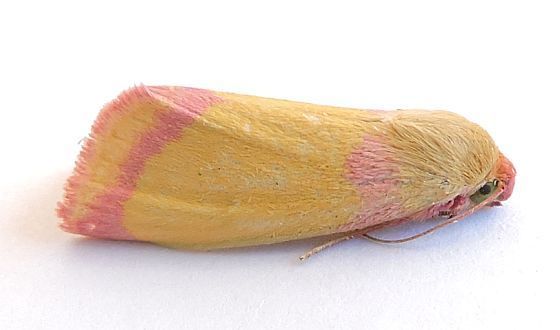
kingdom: Animalia
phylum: Arthropoda
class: Insecta
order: Lepidoptera
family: Noctuidae
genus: Heliocheilus
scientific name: Heliocheilus toralis
